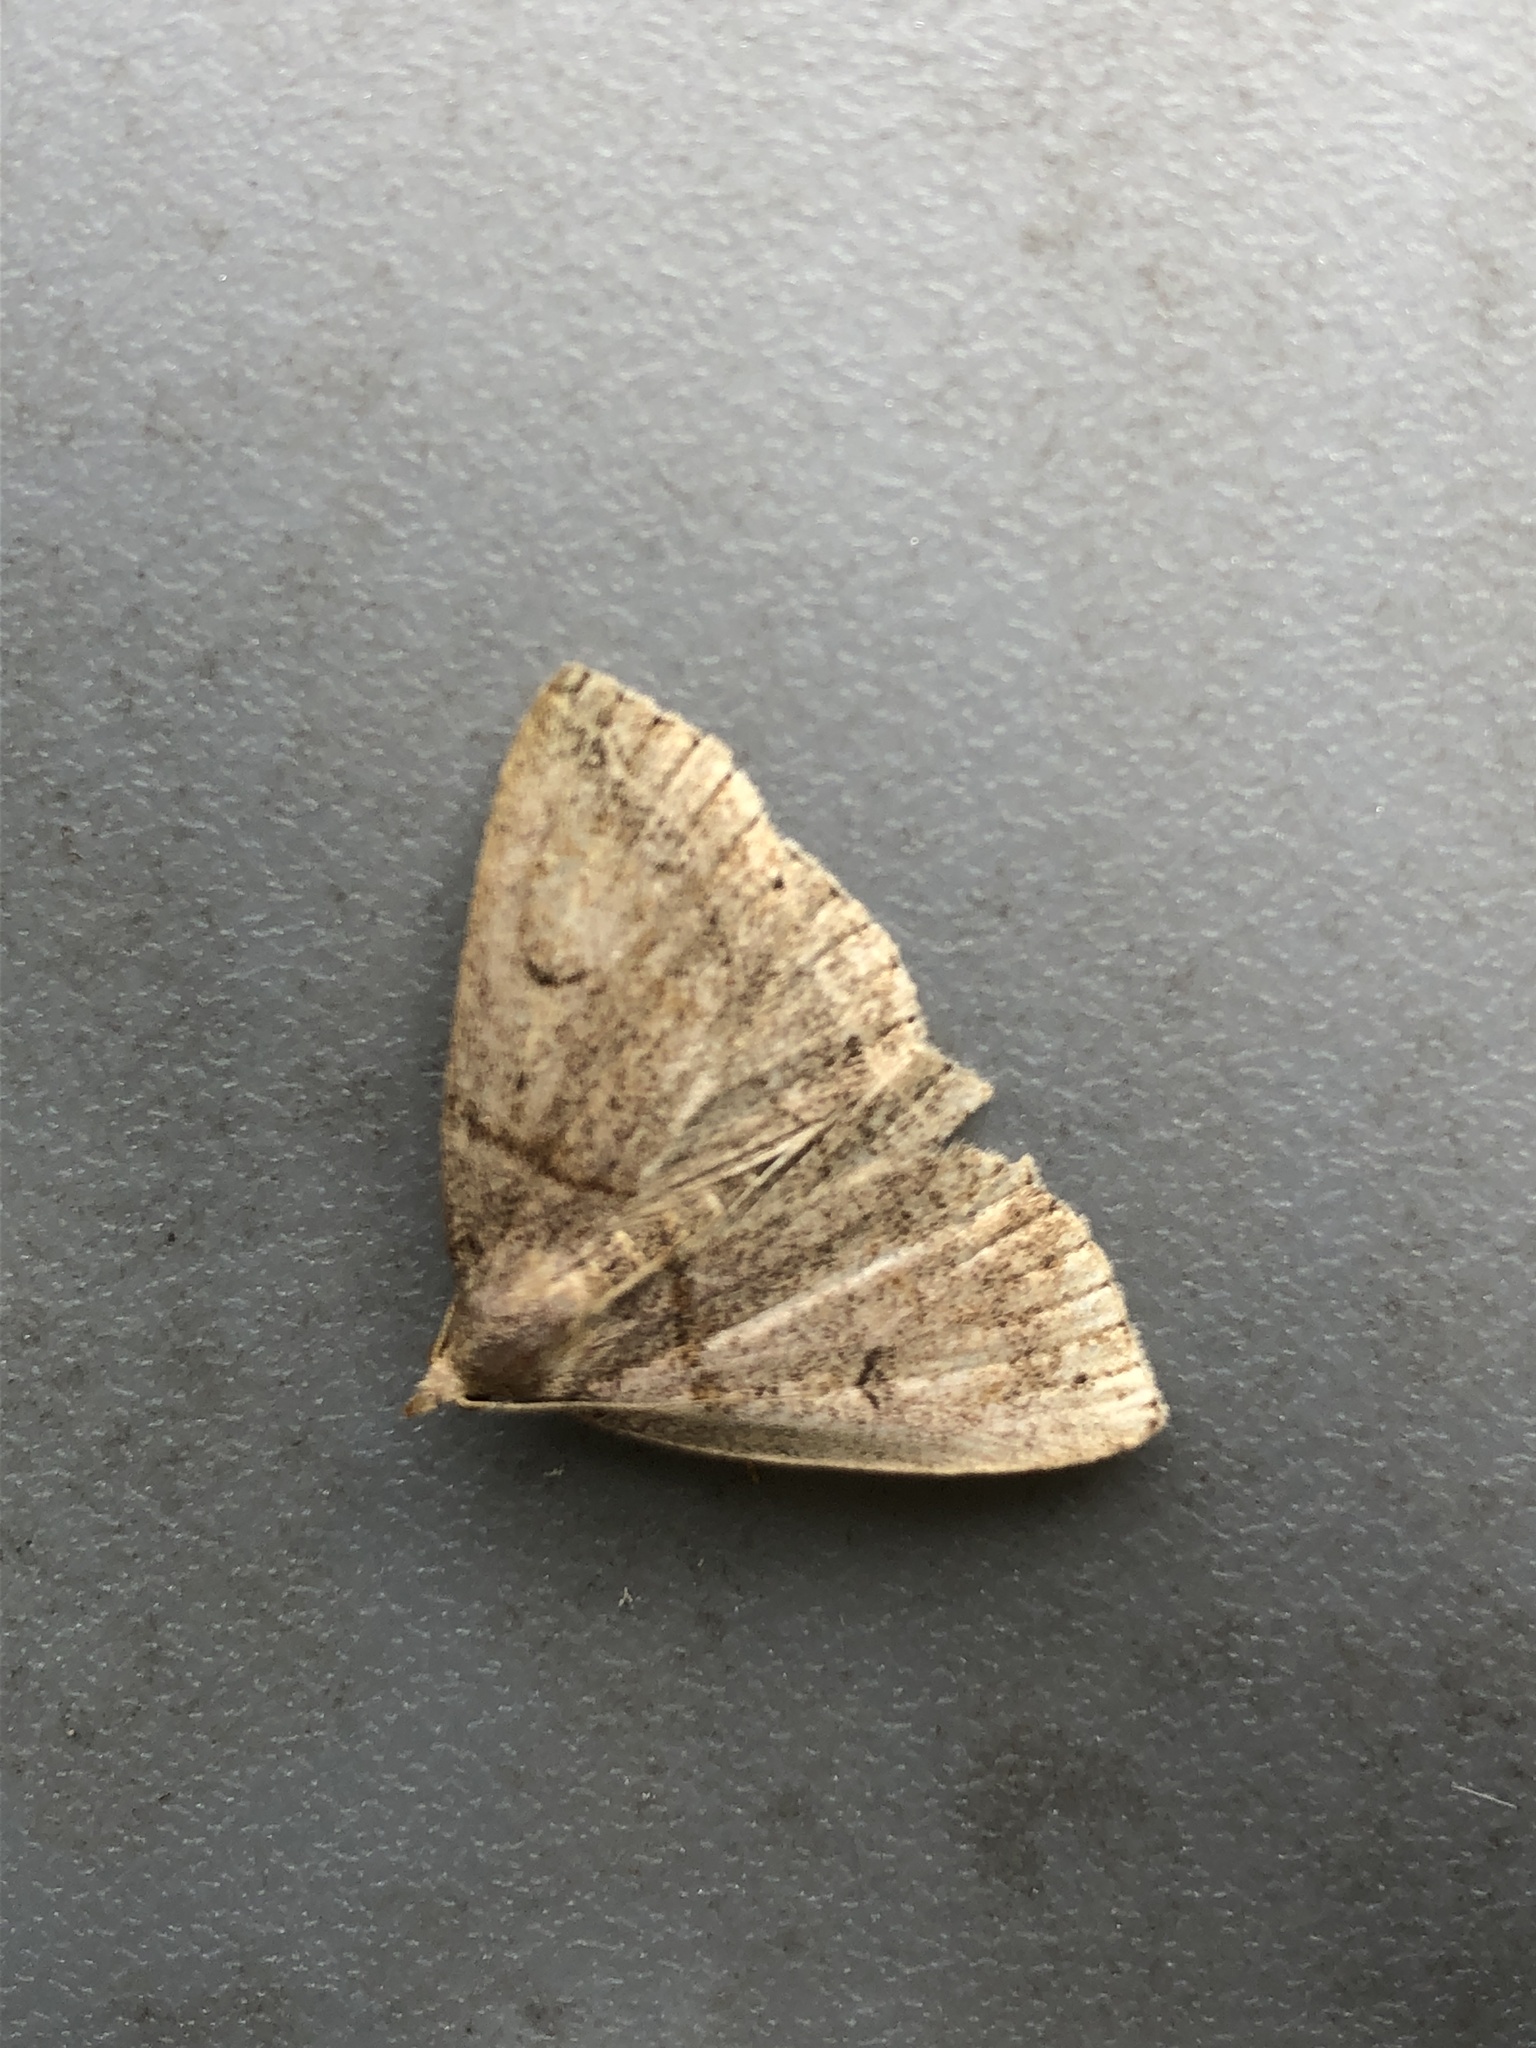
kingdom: Animalia
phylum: Arthropoda
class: Insecta
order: Lepidoptera
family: Erebidae
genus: Zanclognatha
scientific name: Zanclognatha laevigata
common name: Variable fan-foot
